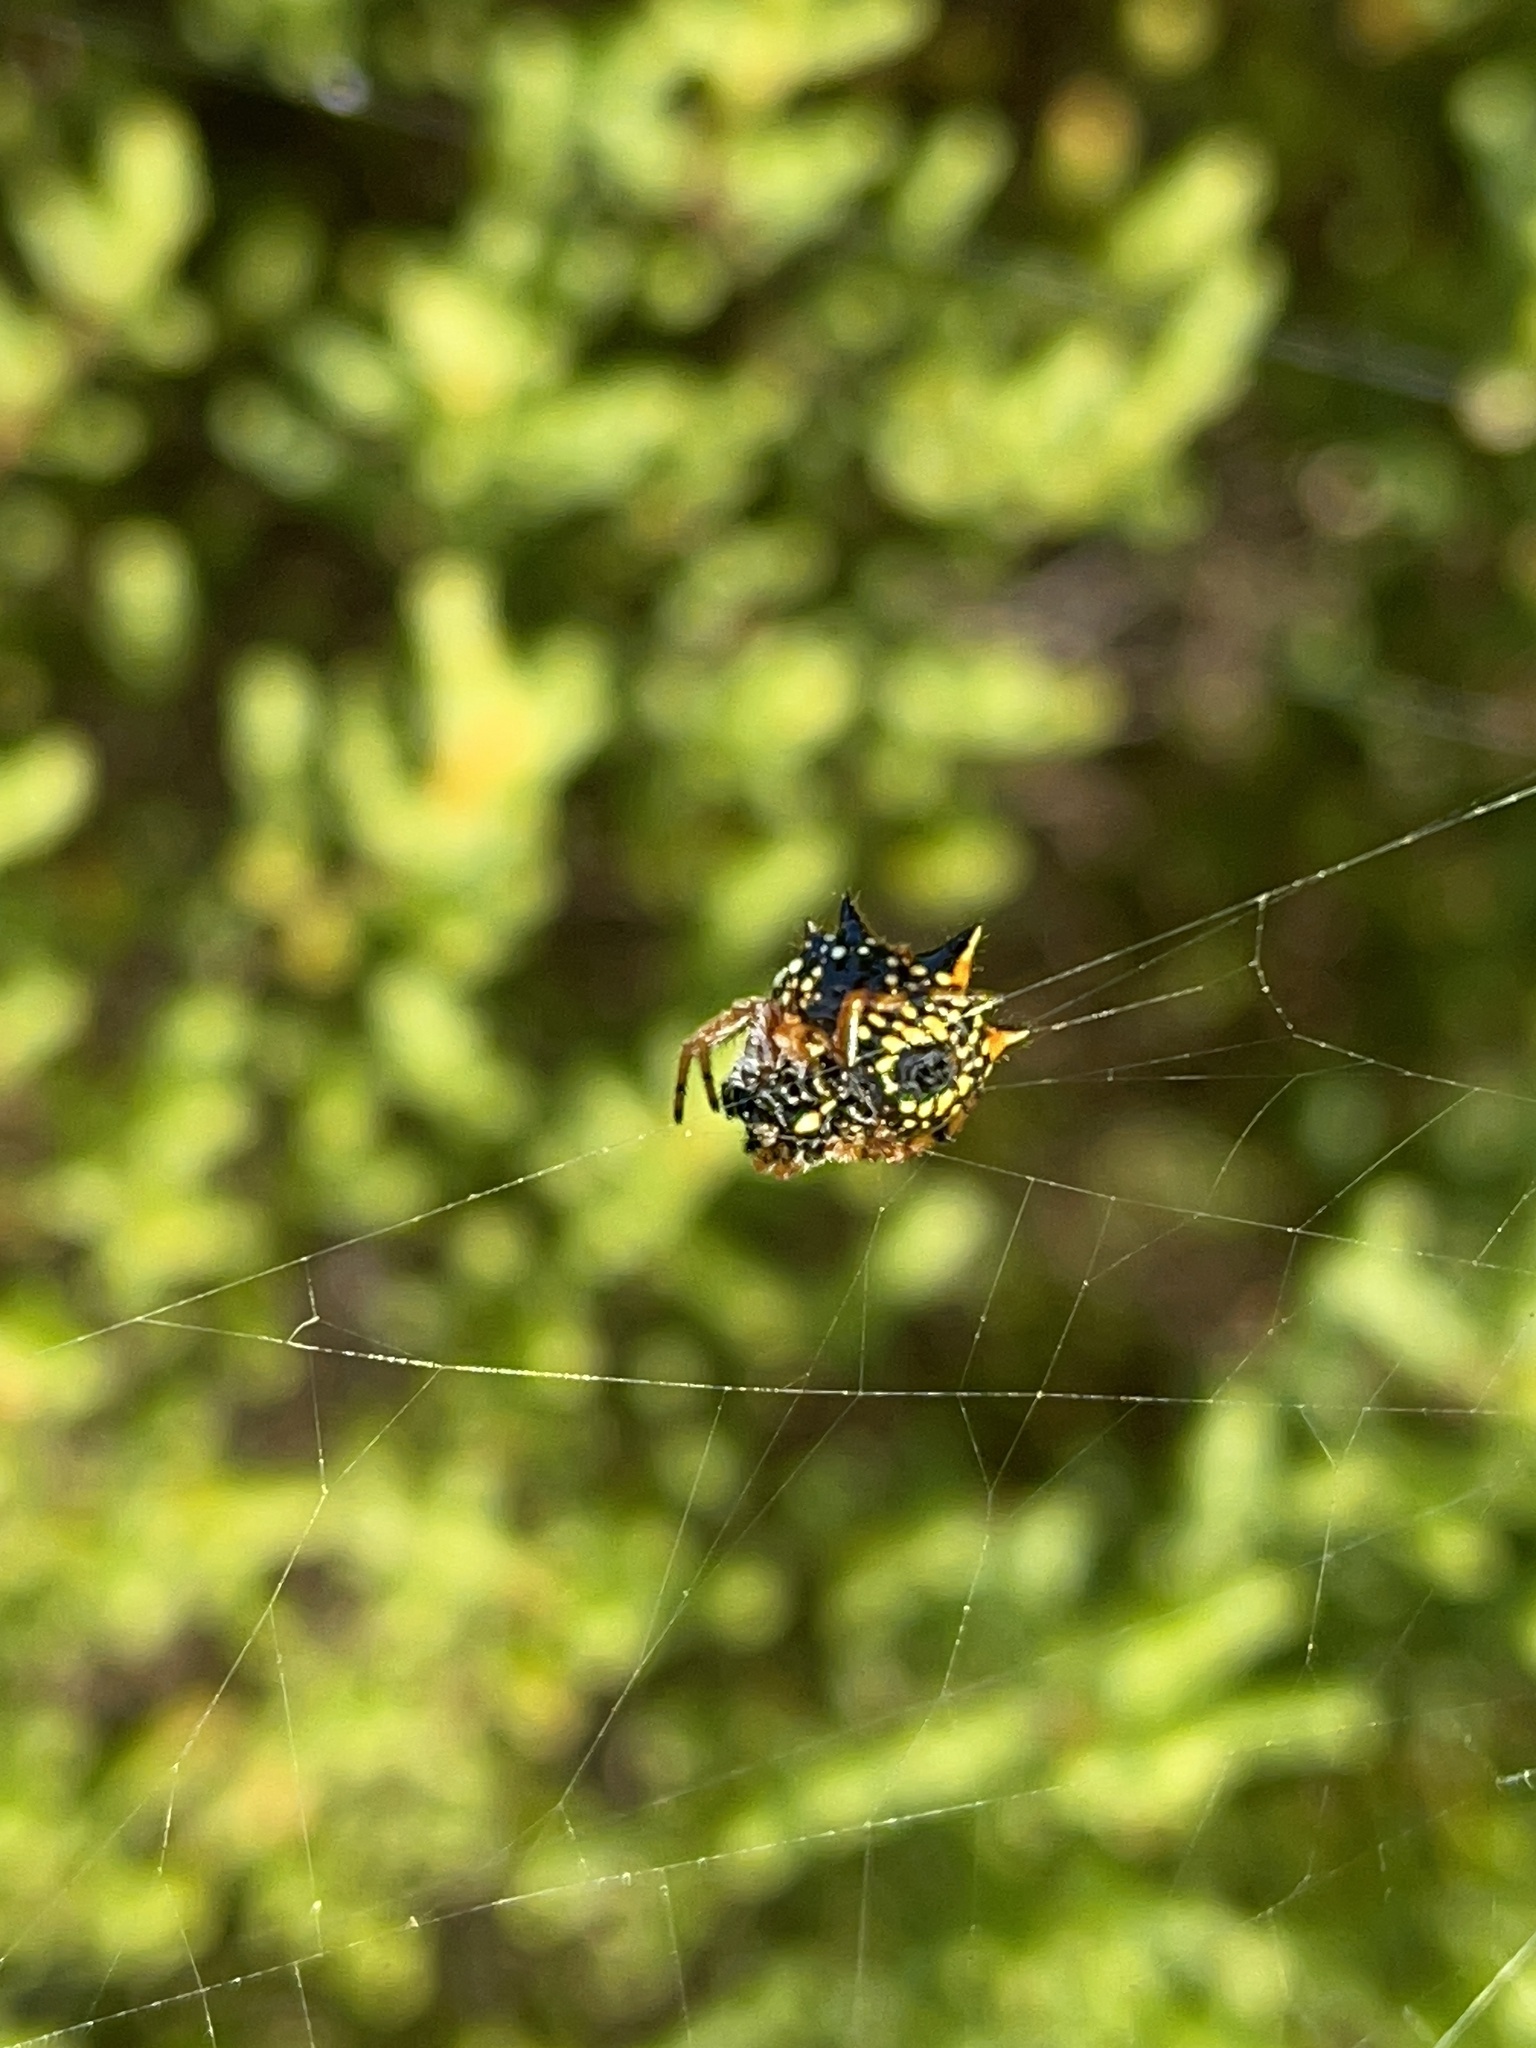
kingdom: Animalia
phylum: Arthropoda
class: Arachnida
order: Araneae
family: Araneidae
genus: Austracantha
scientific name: Austracantha minax
